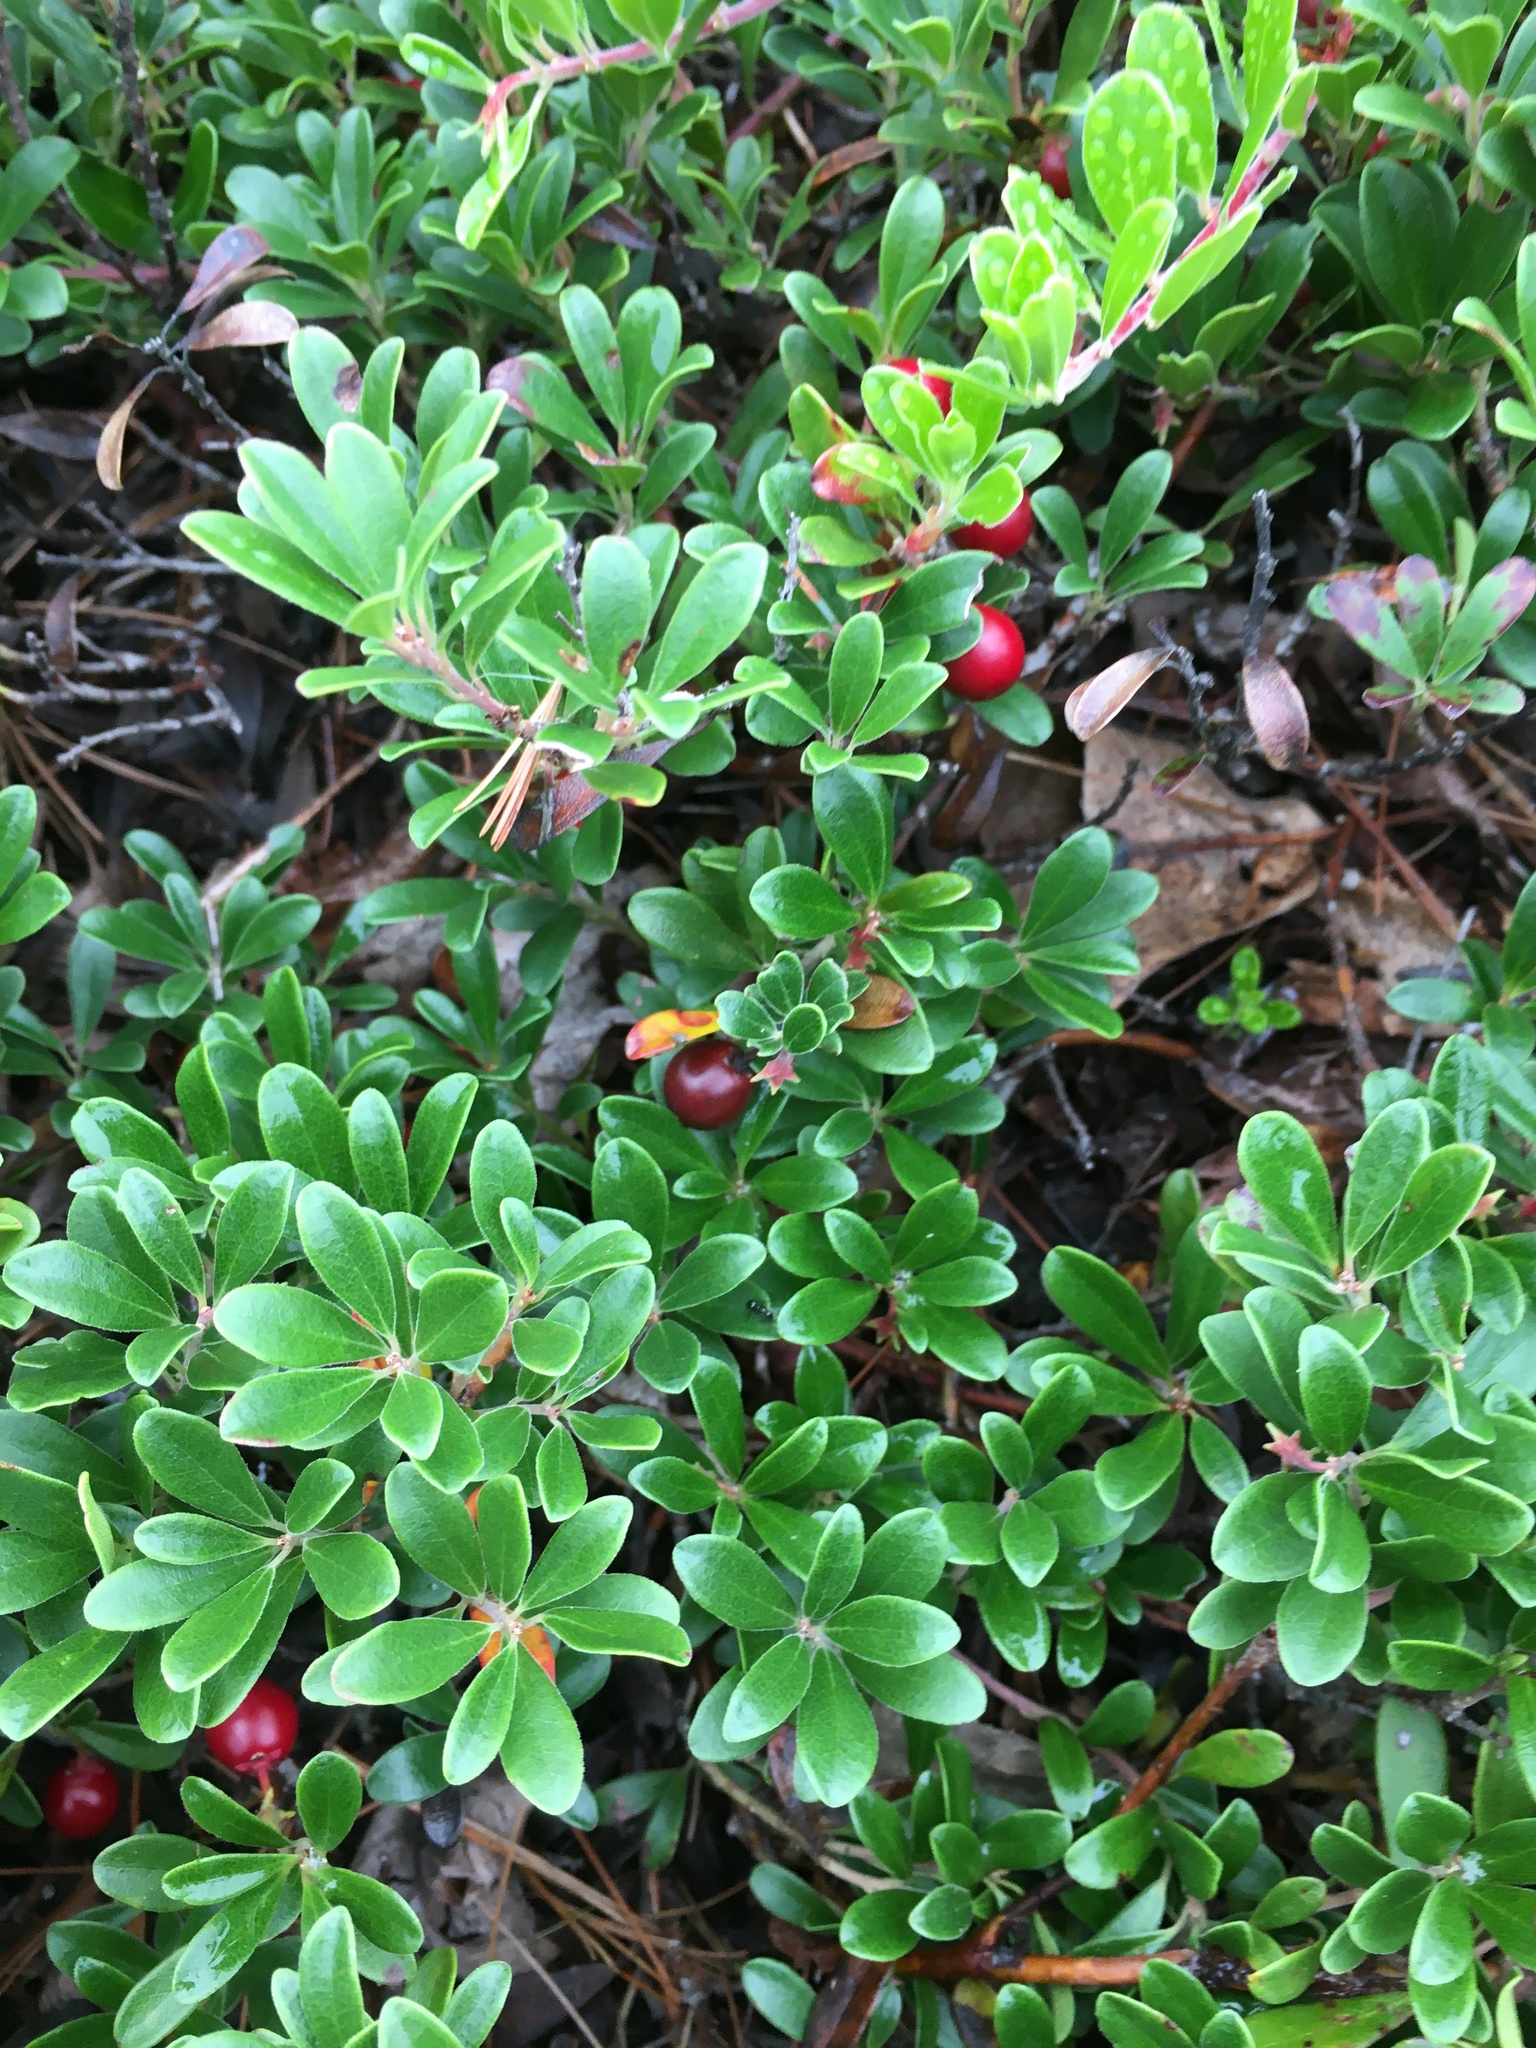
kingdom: Plantae
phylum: Tracheophyta
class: Magnoliopsida
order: Ericales
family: Ericaceae
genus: Arctostaphylos
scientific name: Arctostaphylos uva-ursi
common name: Bearberry
